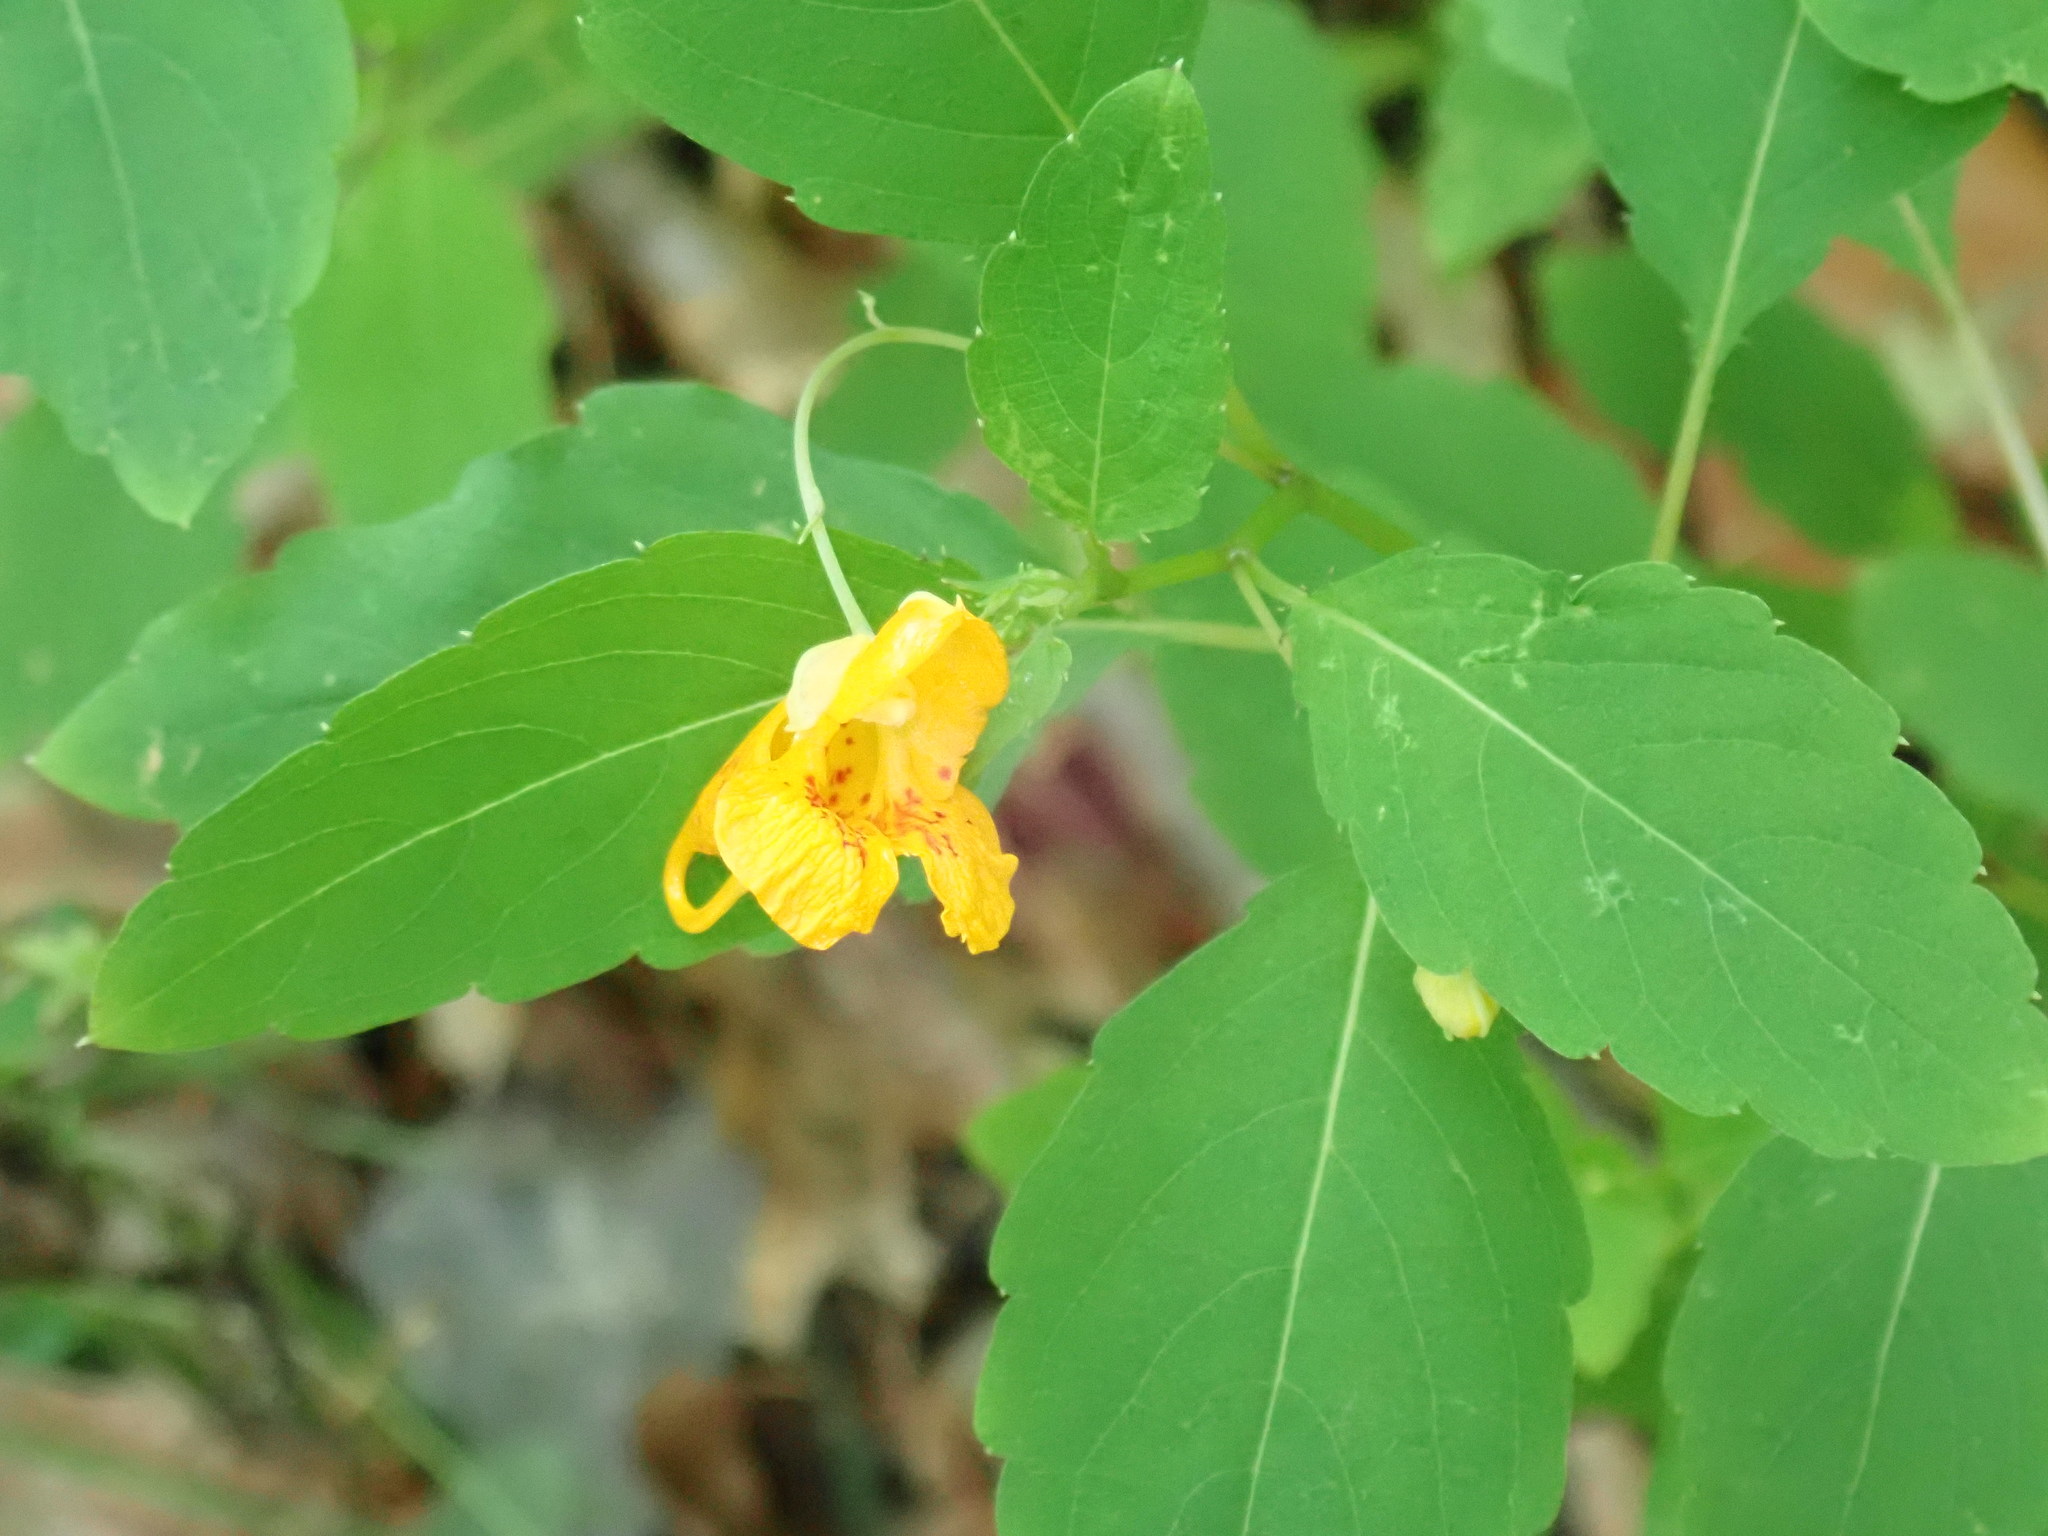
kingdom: Plantae
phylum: Tracheophyta
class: Magnoliopsida
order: Ericales
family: Balsaminaceae
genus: Impatiens
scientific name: Impatiens capensis
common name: Orange balsam
